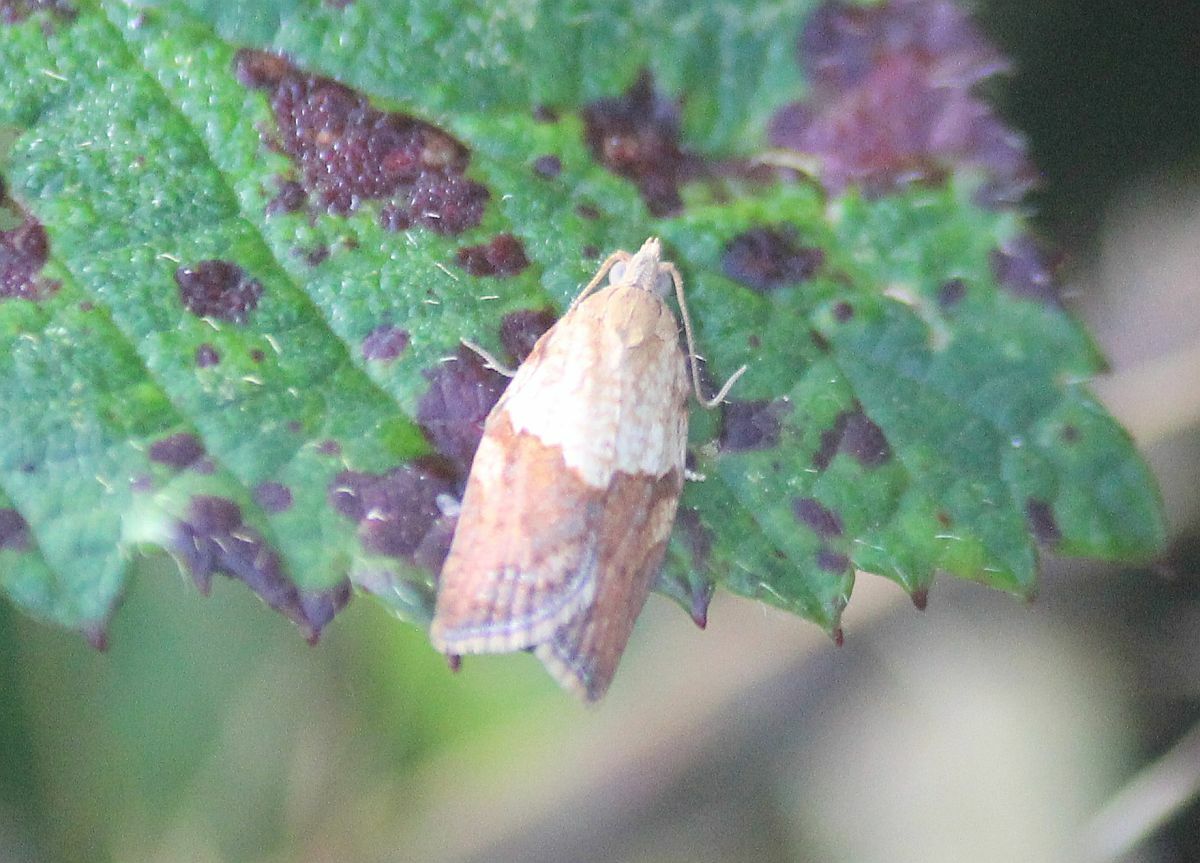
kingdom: Animalia
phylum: Arthropoda
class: Insecta
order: Lepidoptera
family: Tortricidae
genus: Epiphyas
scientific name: Epiphyas postvittana
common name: Light brown apple moth
